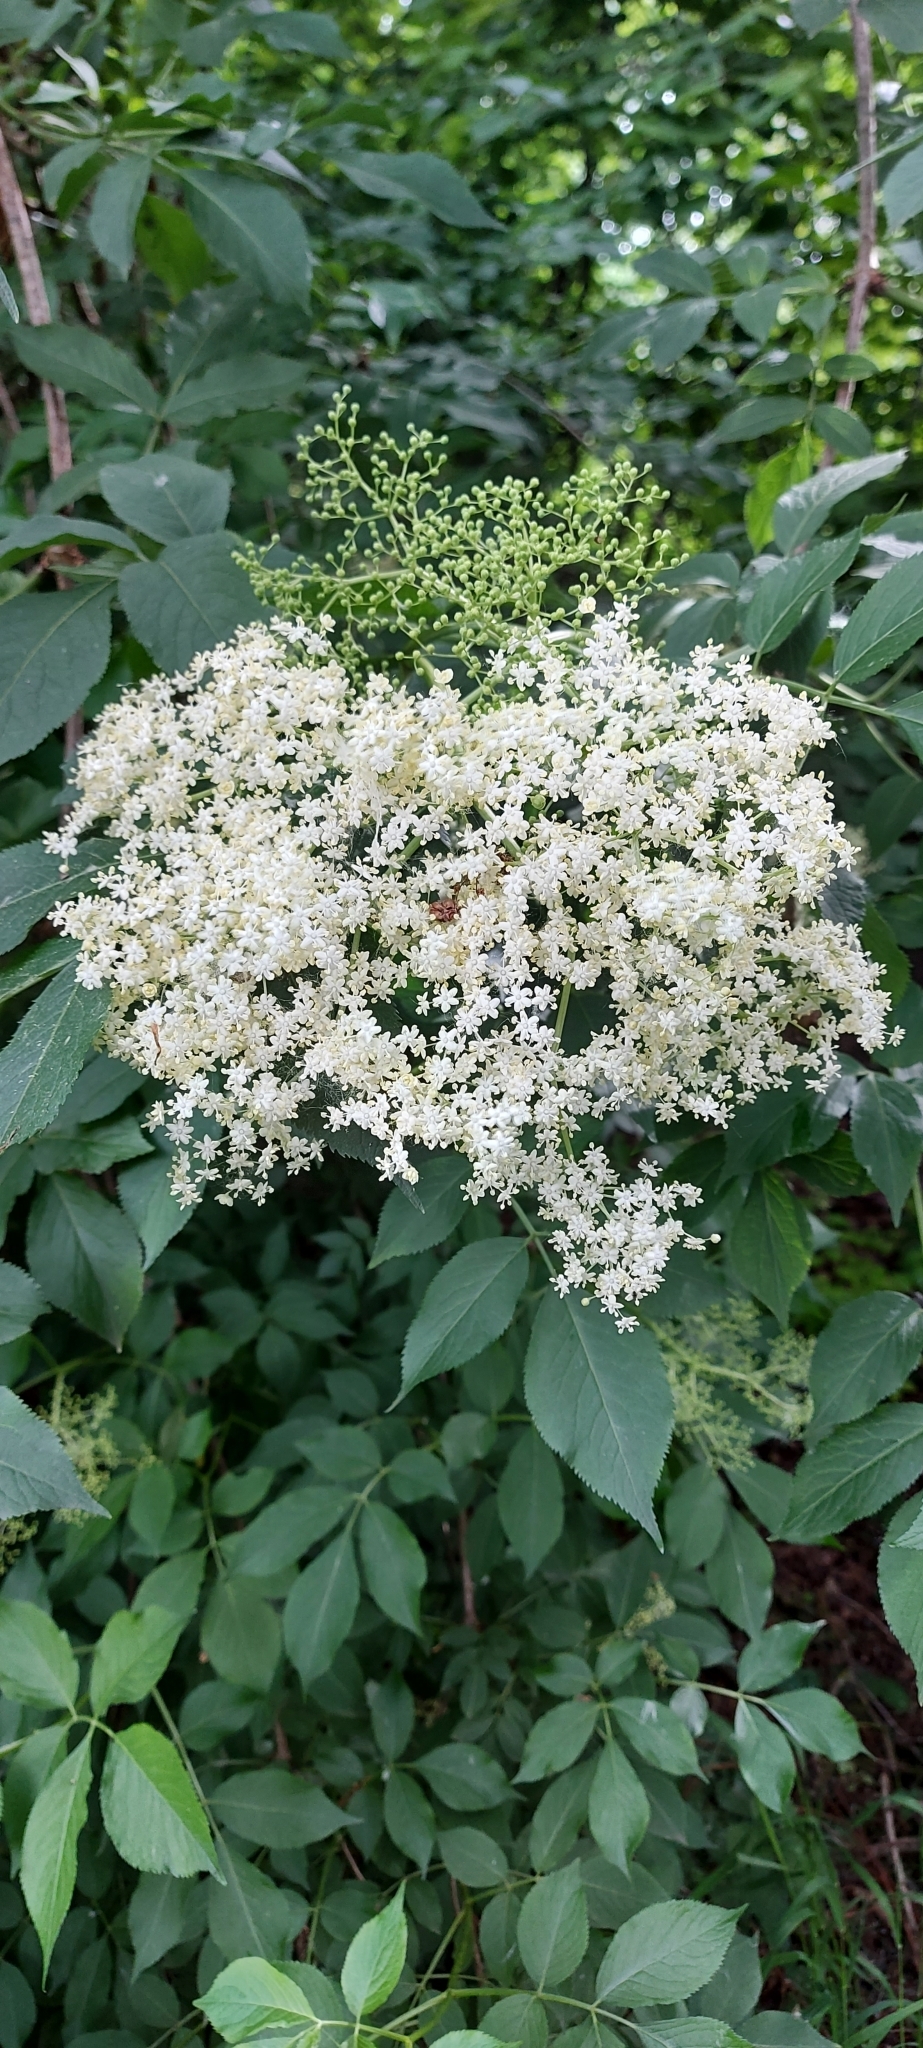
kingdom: Plantae
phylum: Tracheophyta
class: Magnoliopsida
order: Dipsacales
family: Viburnaceae
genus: Sambucus
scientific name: Sambucus nigra
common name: Elder
